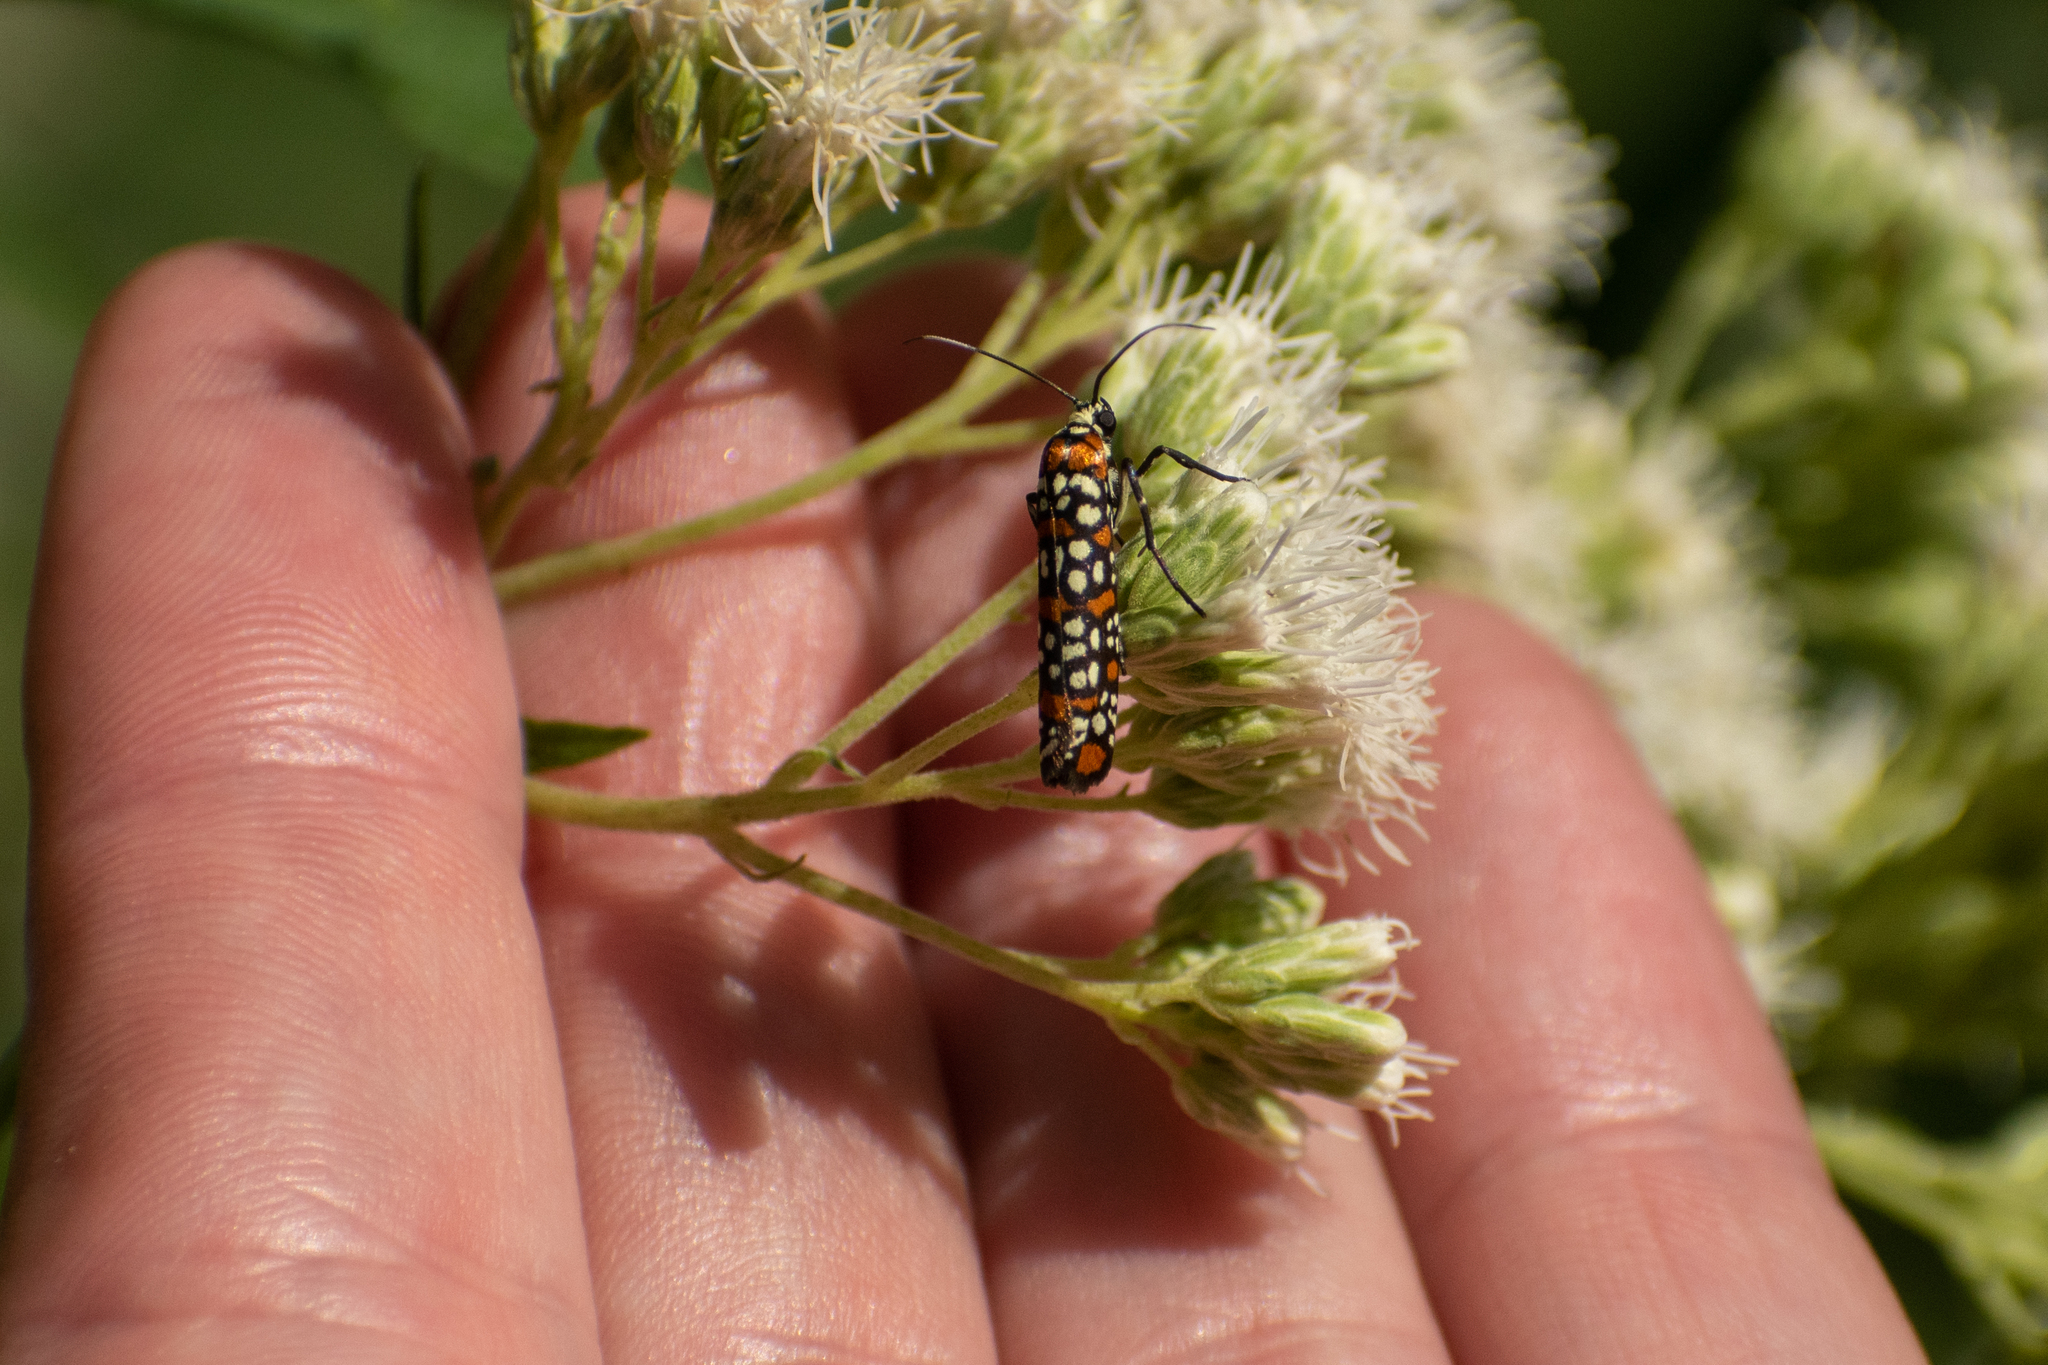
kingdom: Animalia
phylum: Arthropoda
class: Insecta
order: Lepidoptera
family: Attevidae
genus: Atteva
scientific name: Atteva punctella
